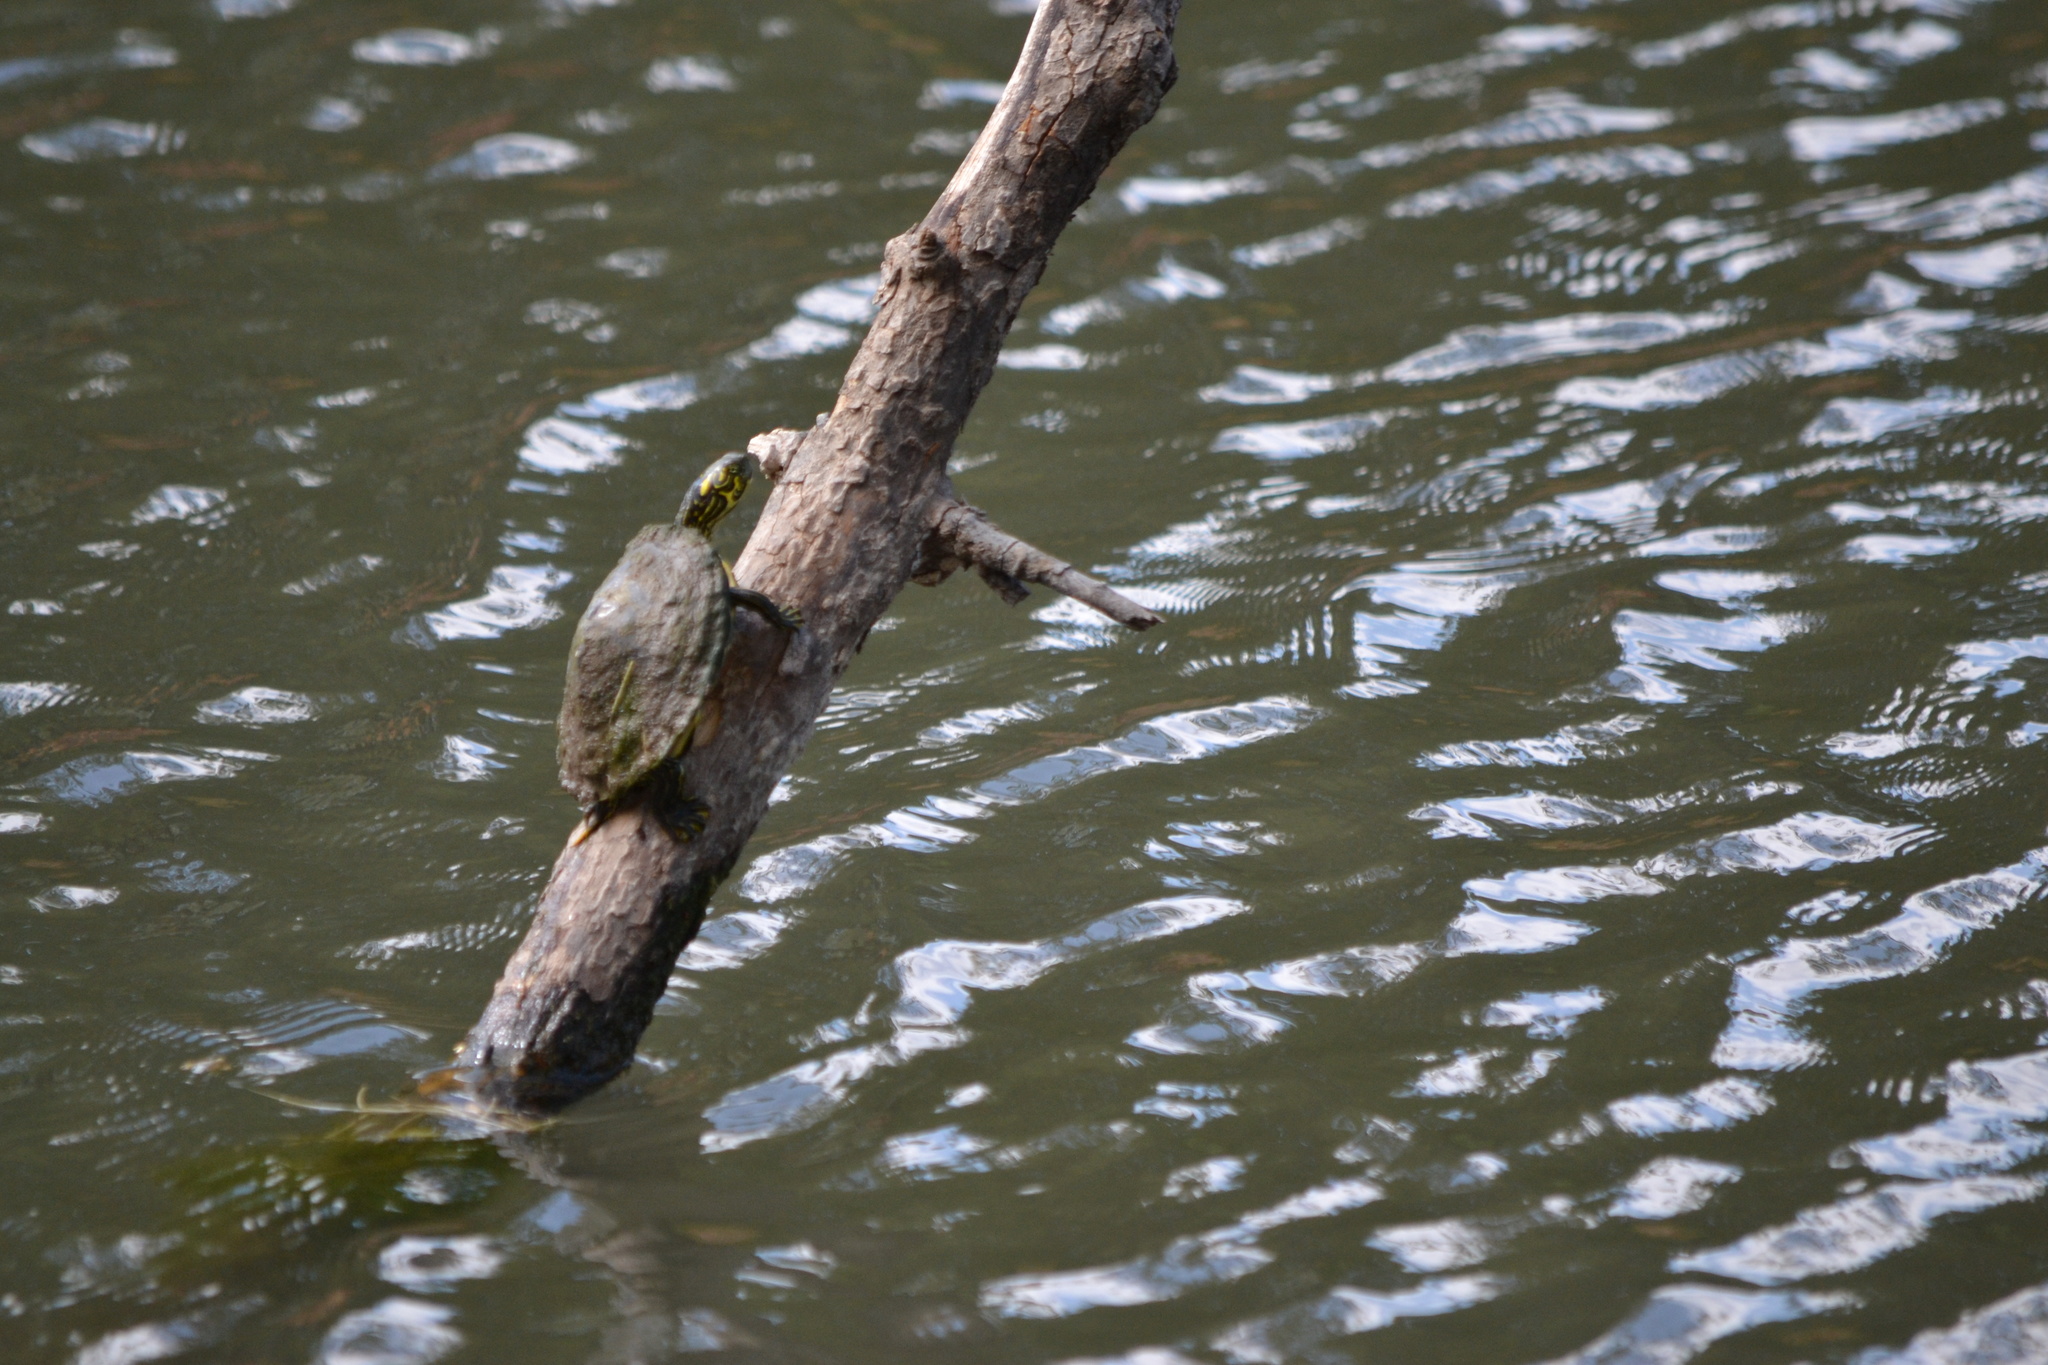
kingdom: Animalia
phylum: Chordata
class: Testudines
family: Emydidae
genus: Pseudemys
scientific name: Pseudemys texana
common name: Texas river cooter
